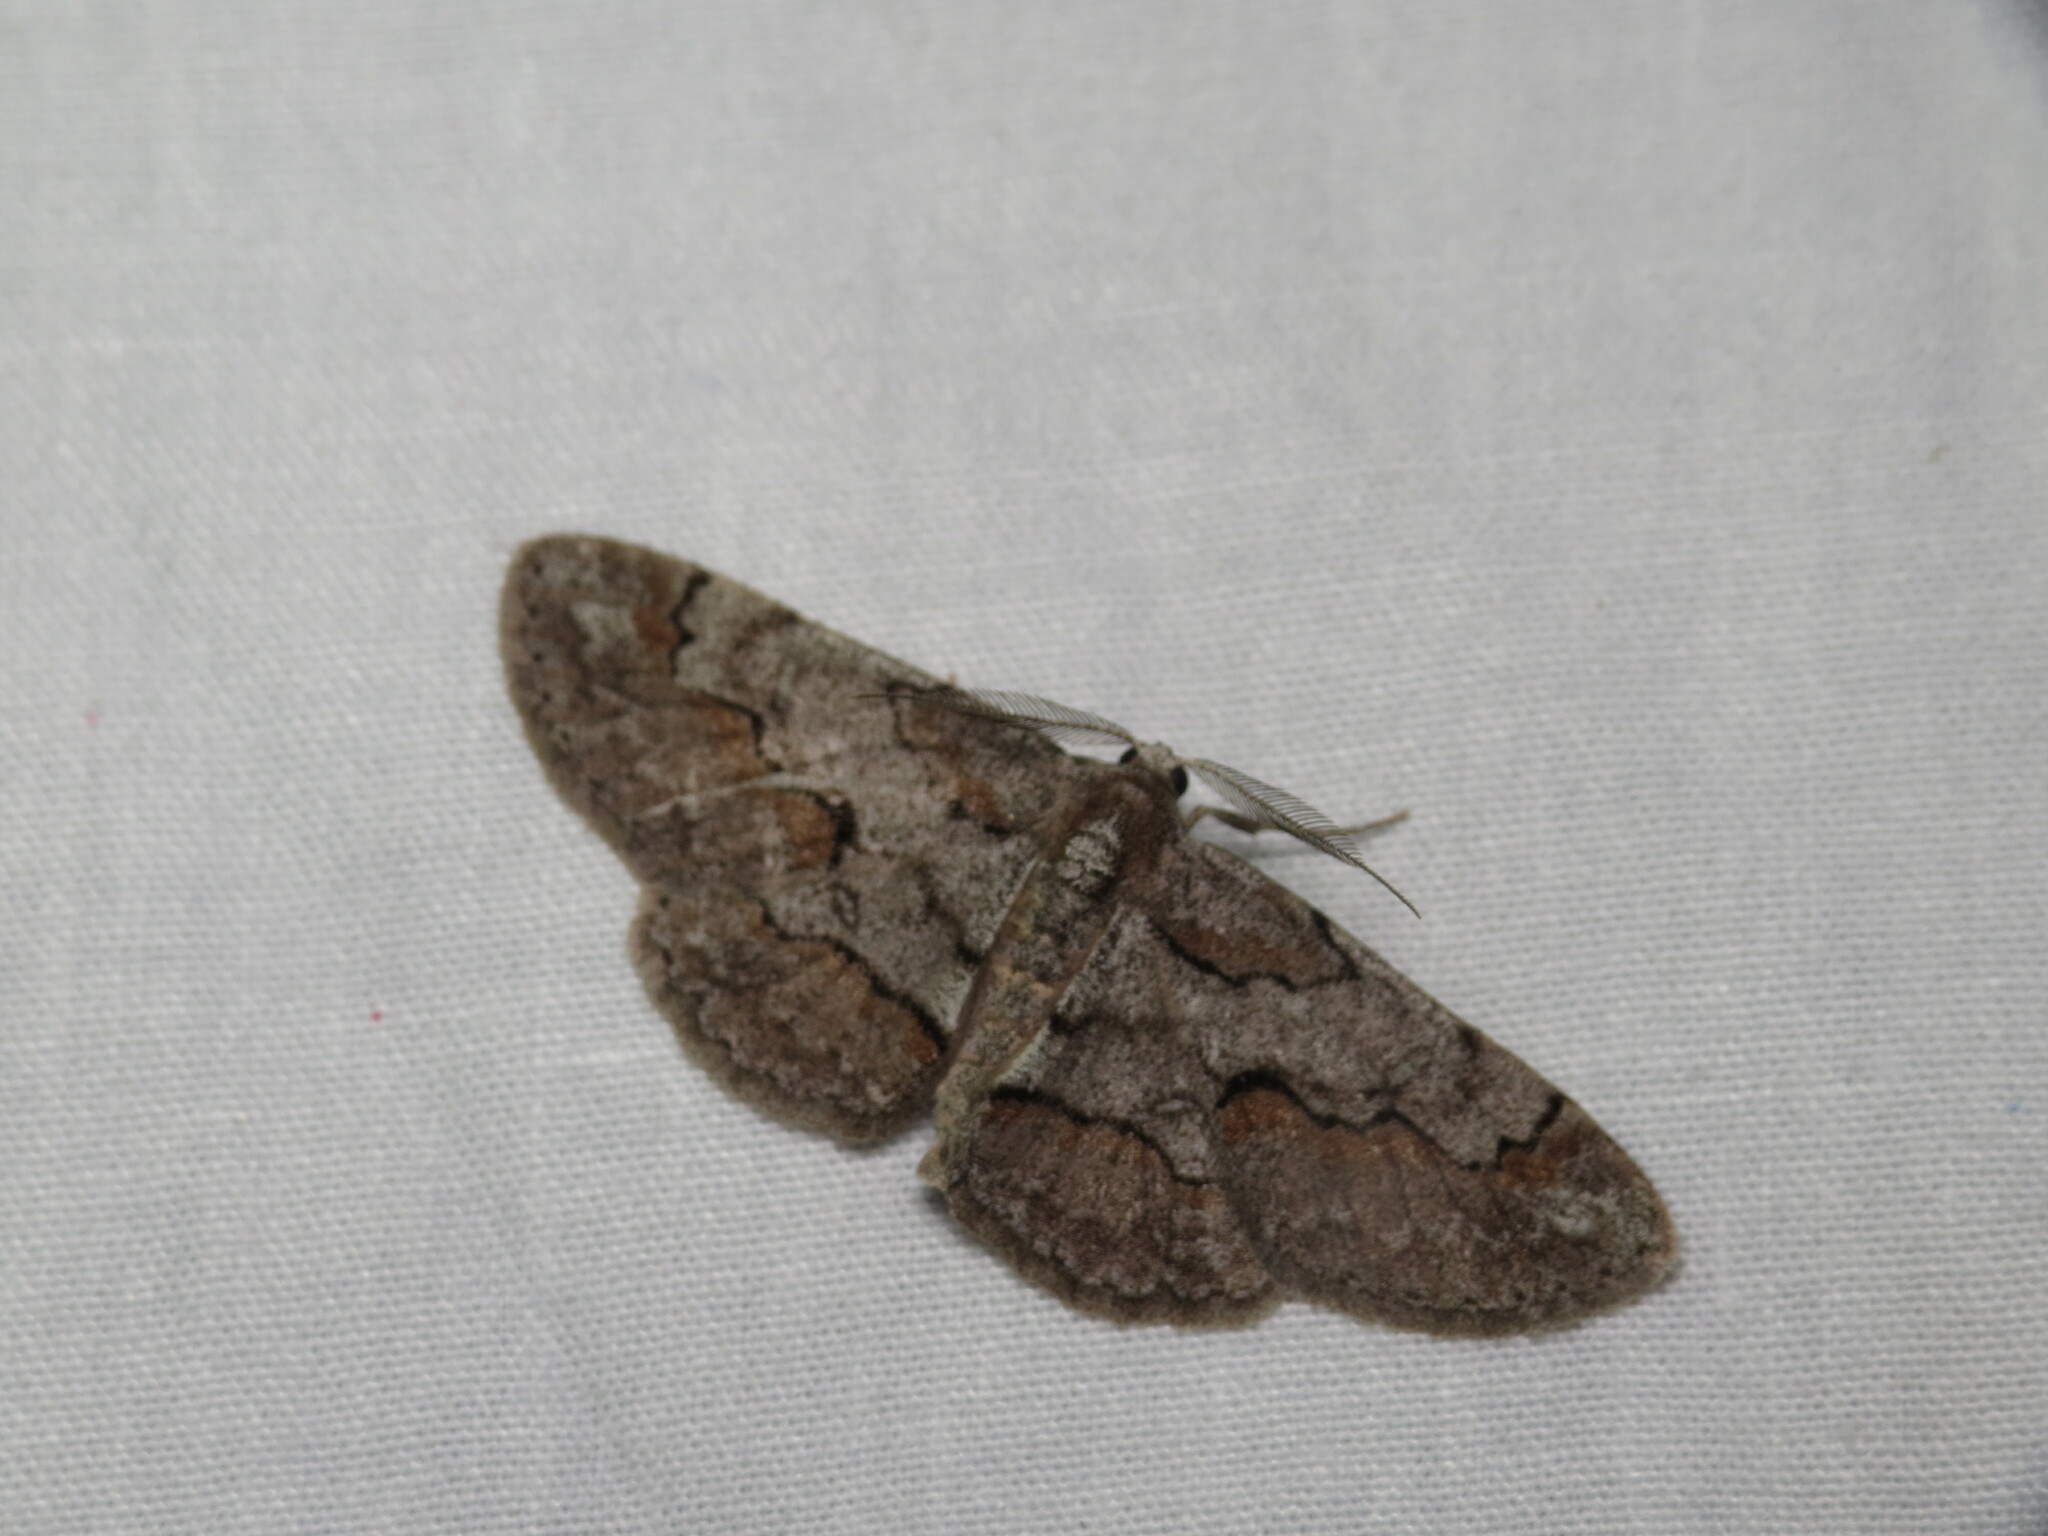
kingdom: Animalia
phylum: Arthropoda
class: Insecta
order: Lepidoptera
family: Geometridae
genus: Iridopsis
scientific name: Iridopsis vellivolata
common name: Large purplish gray
